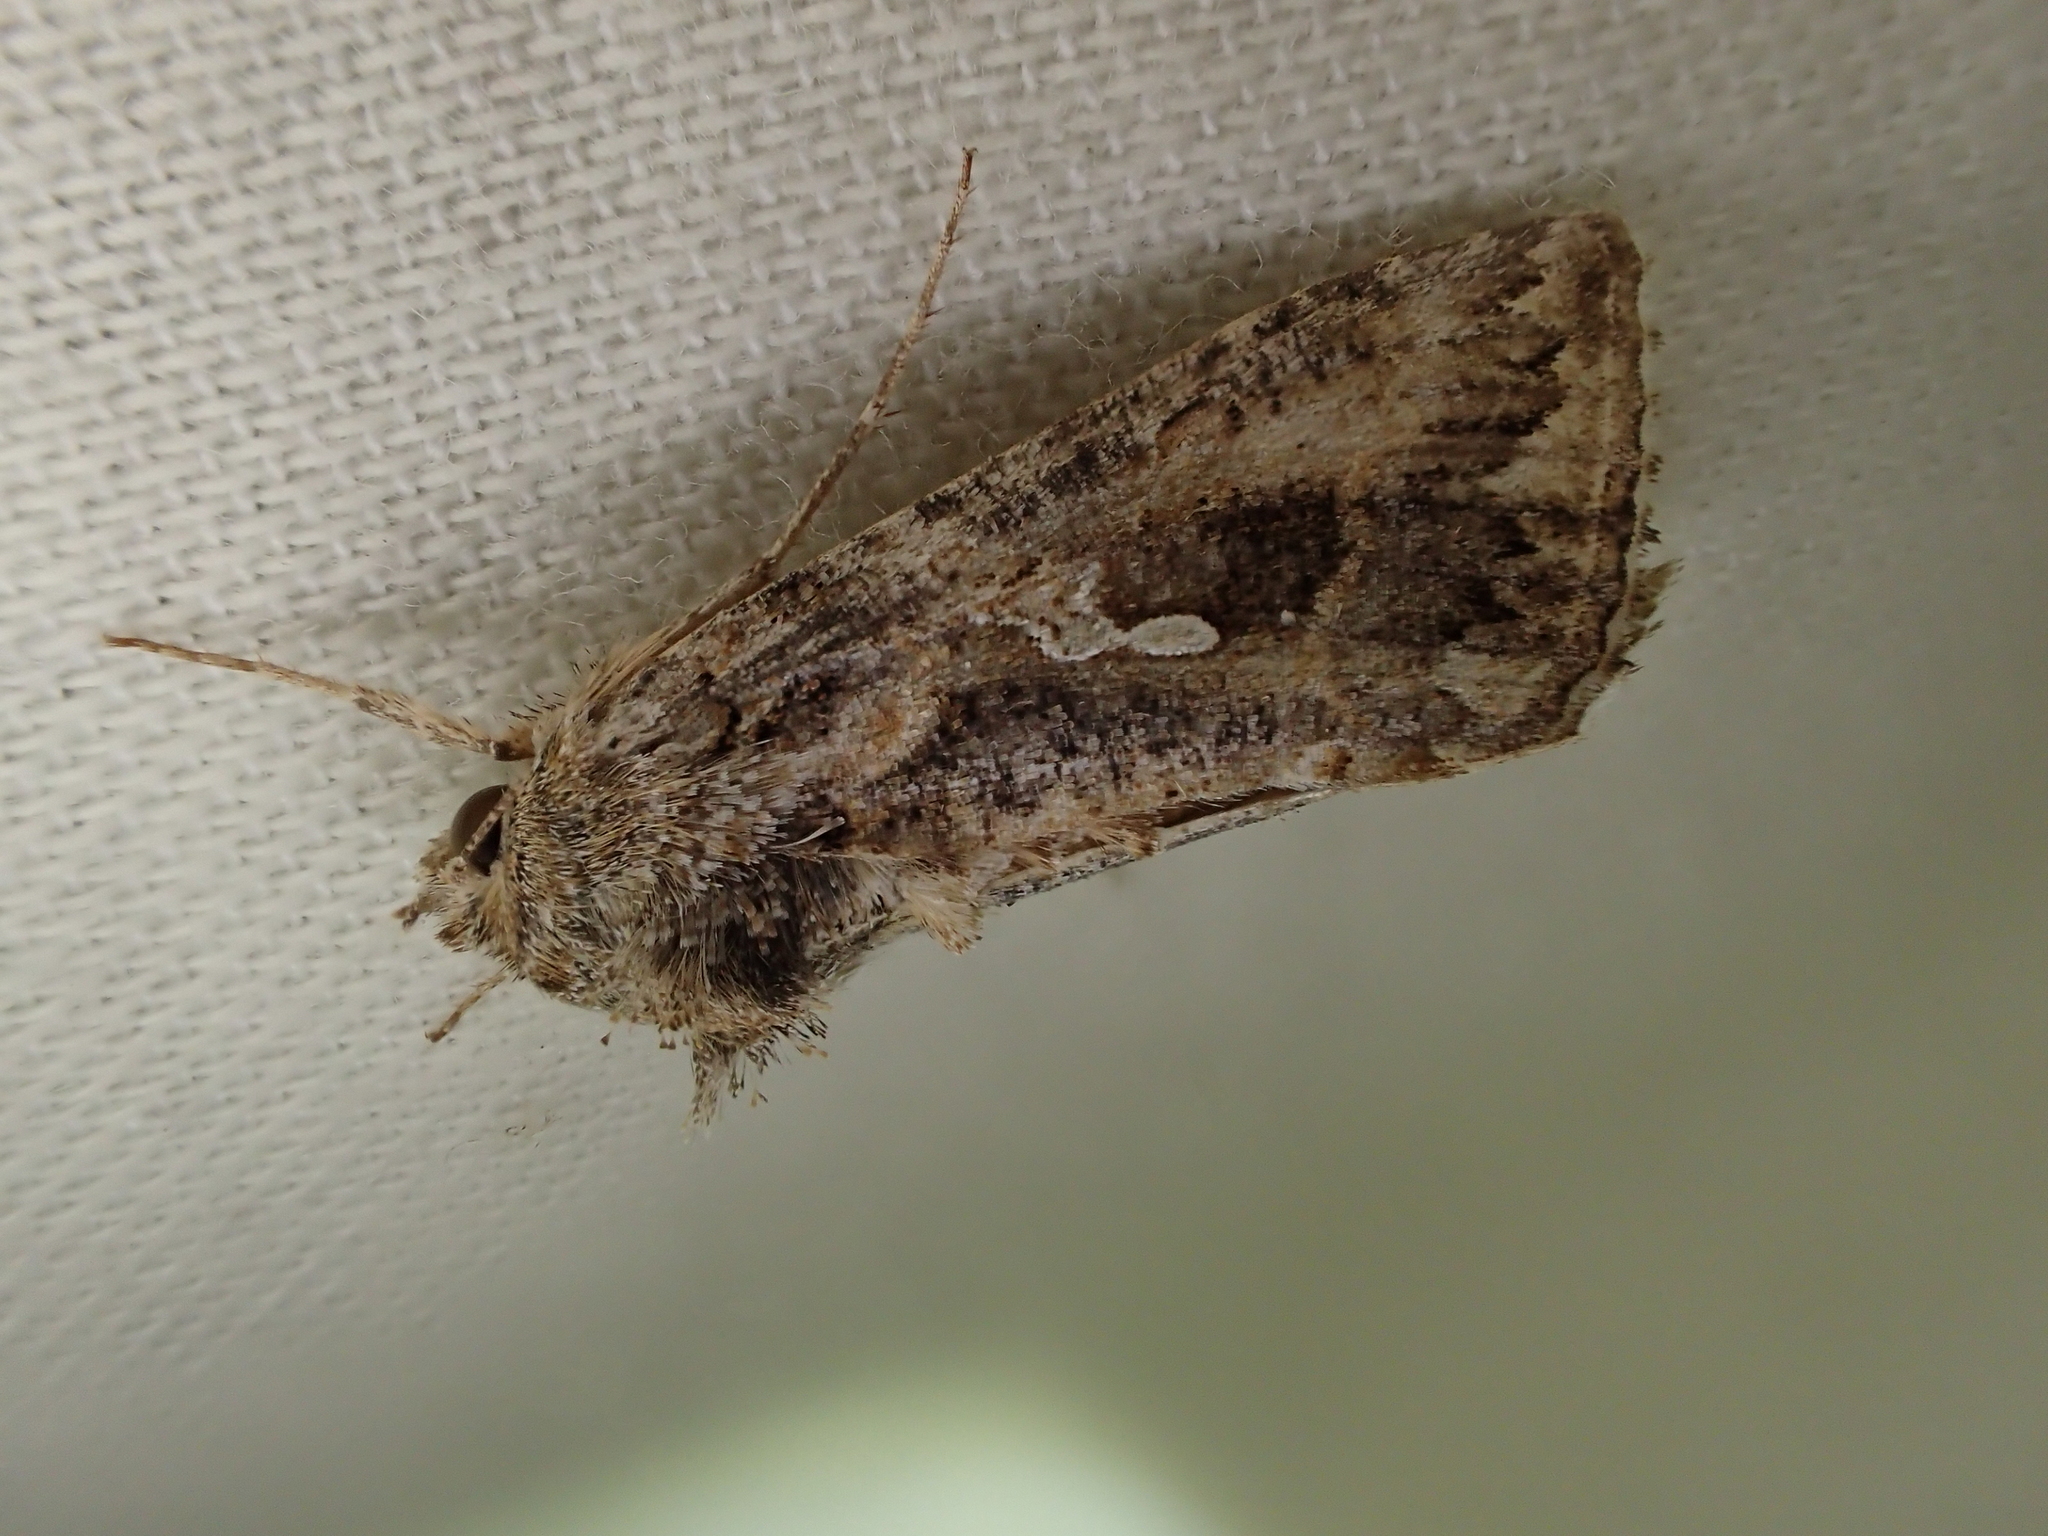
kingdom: Animalia
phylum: Arthropoda
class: Insecta
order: Lepidoptera
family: Noctuidae
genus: Trichoplusia
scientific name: Trichoplusia ni
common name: Ni moth
